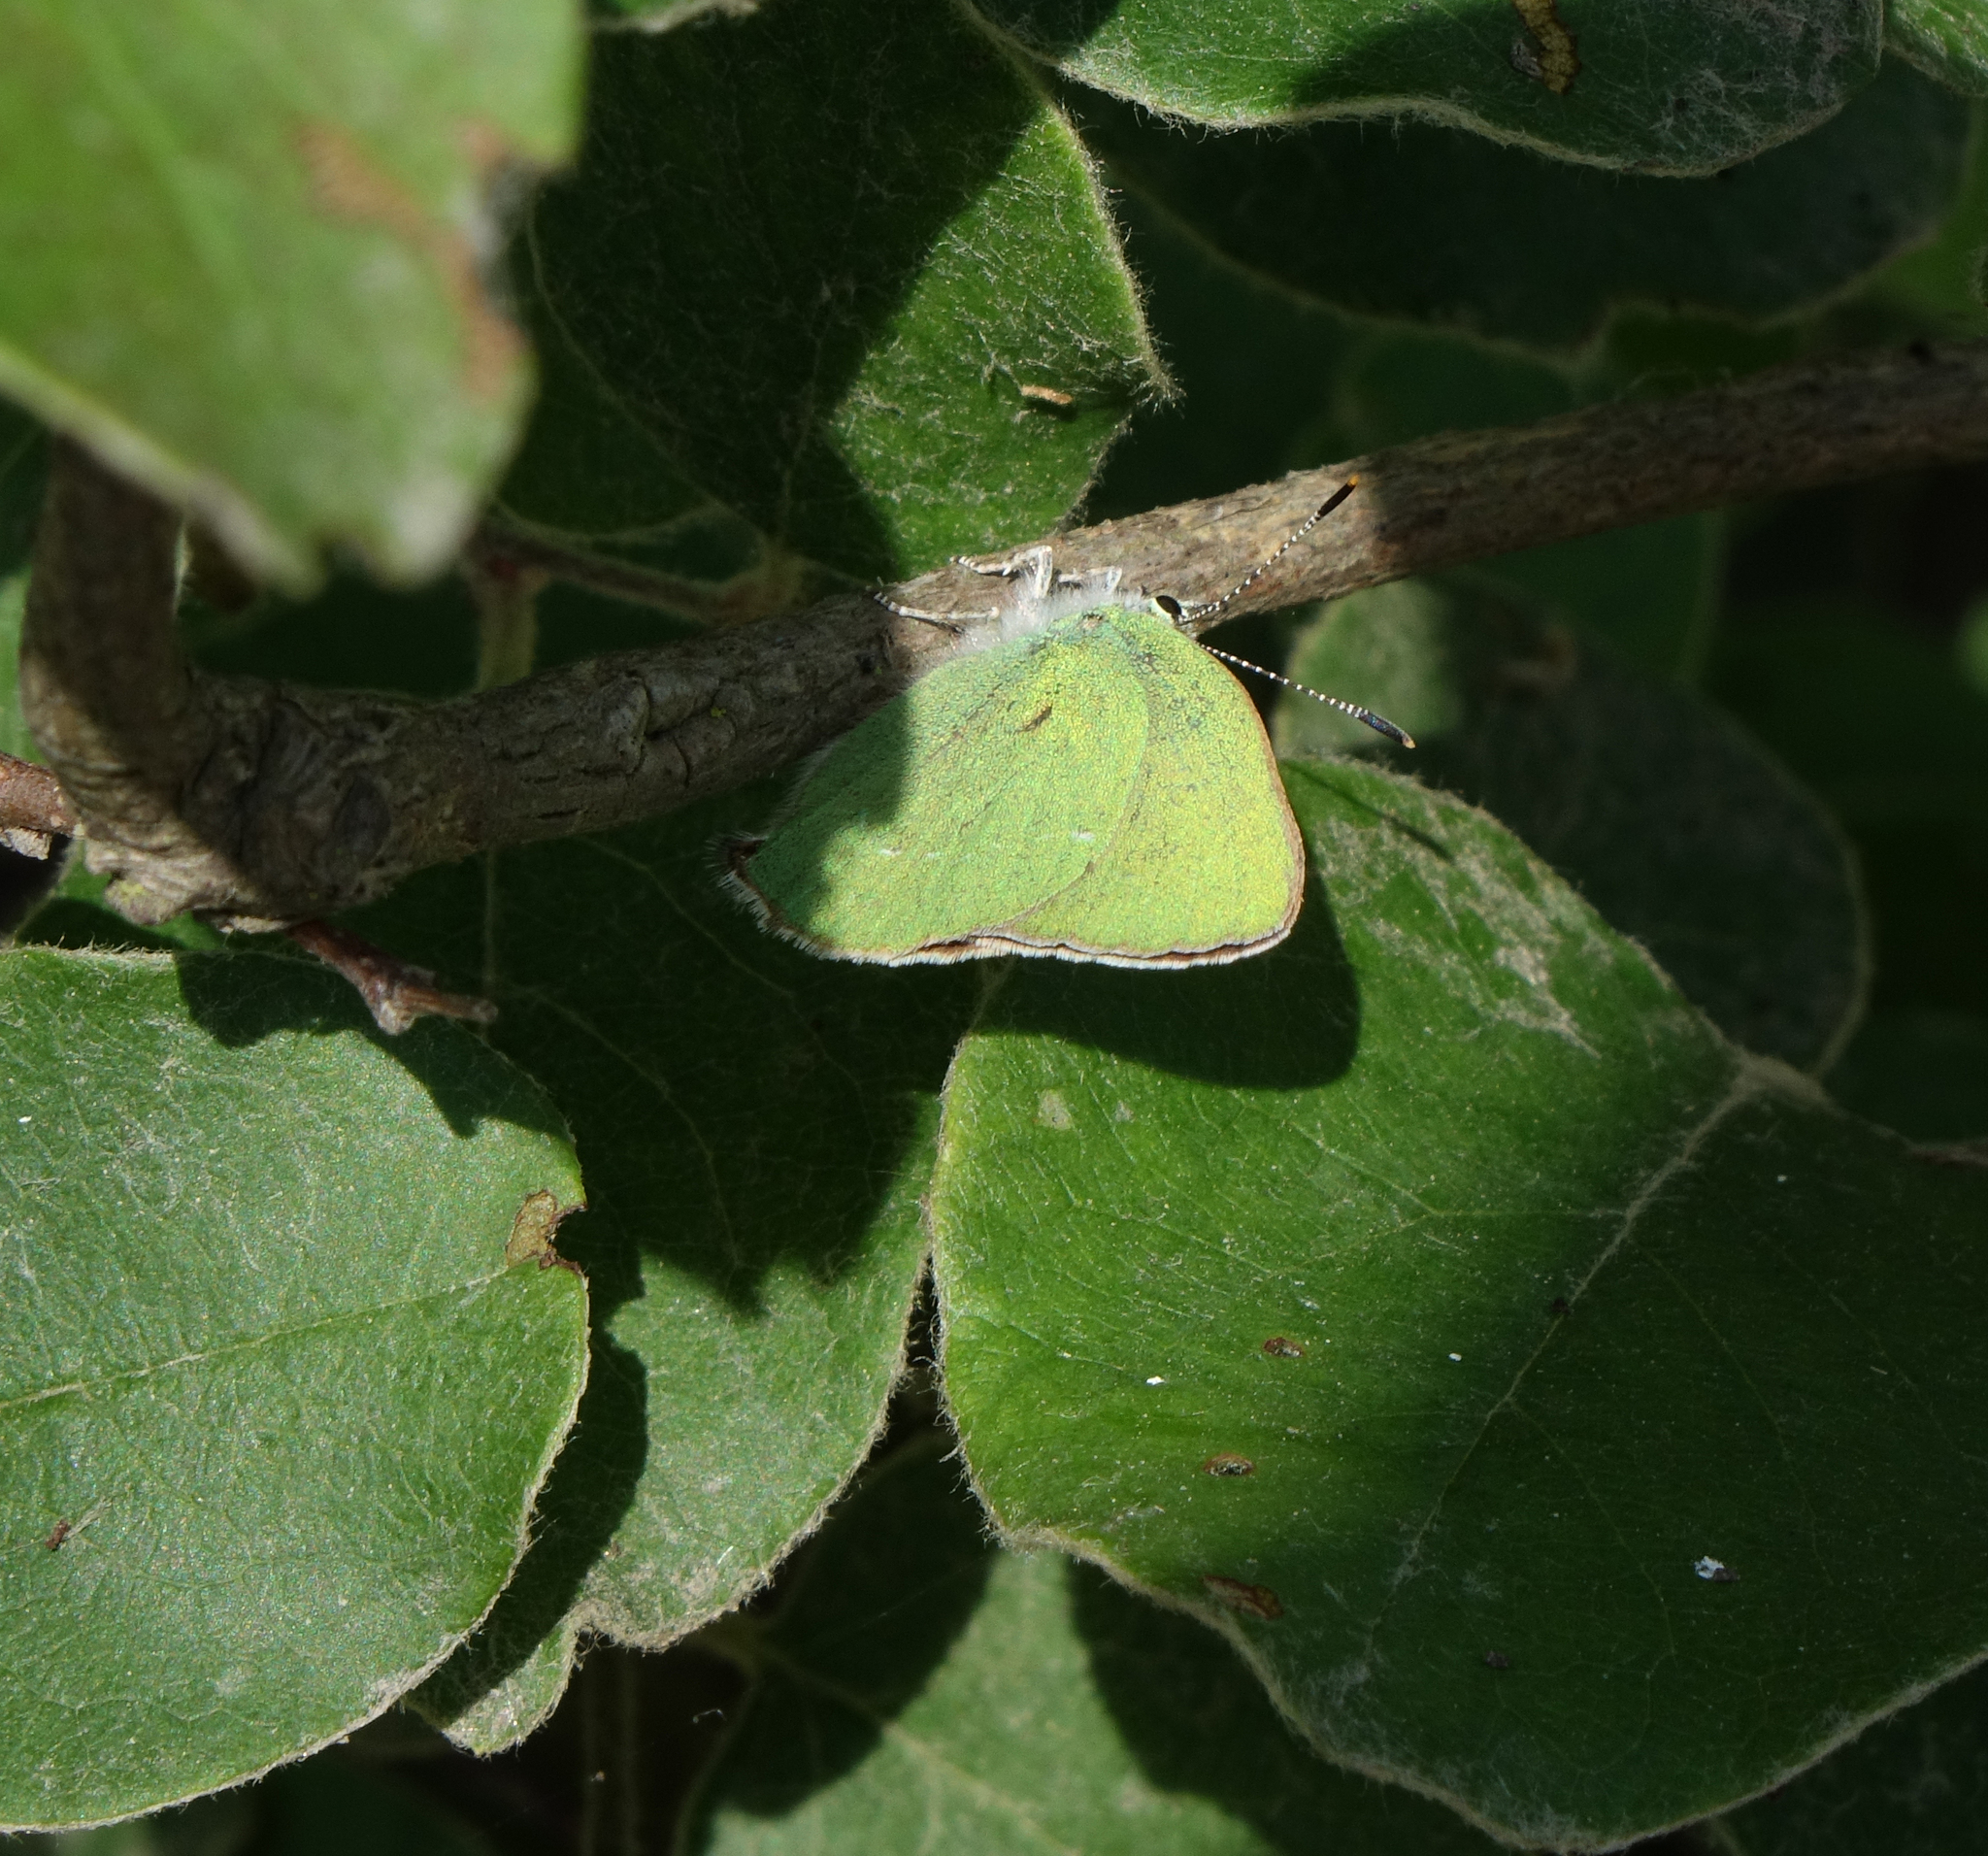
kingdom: Animalia
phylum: Arthropoda
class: Insecta
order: Lepidoptera
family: Lycaenidae
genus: Callophrys
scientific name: Callophrys rubi
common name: Green hairstreak
